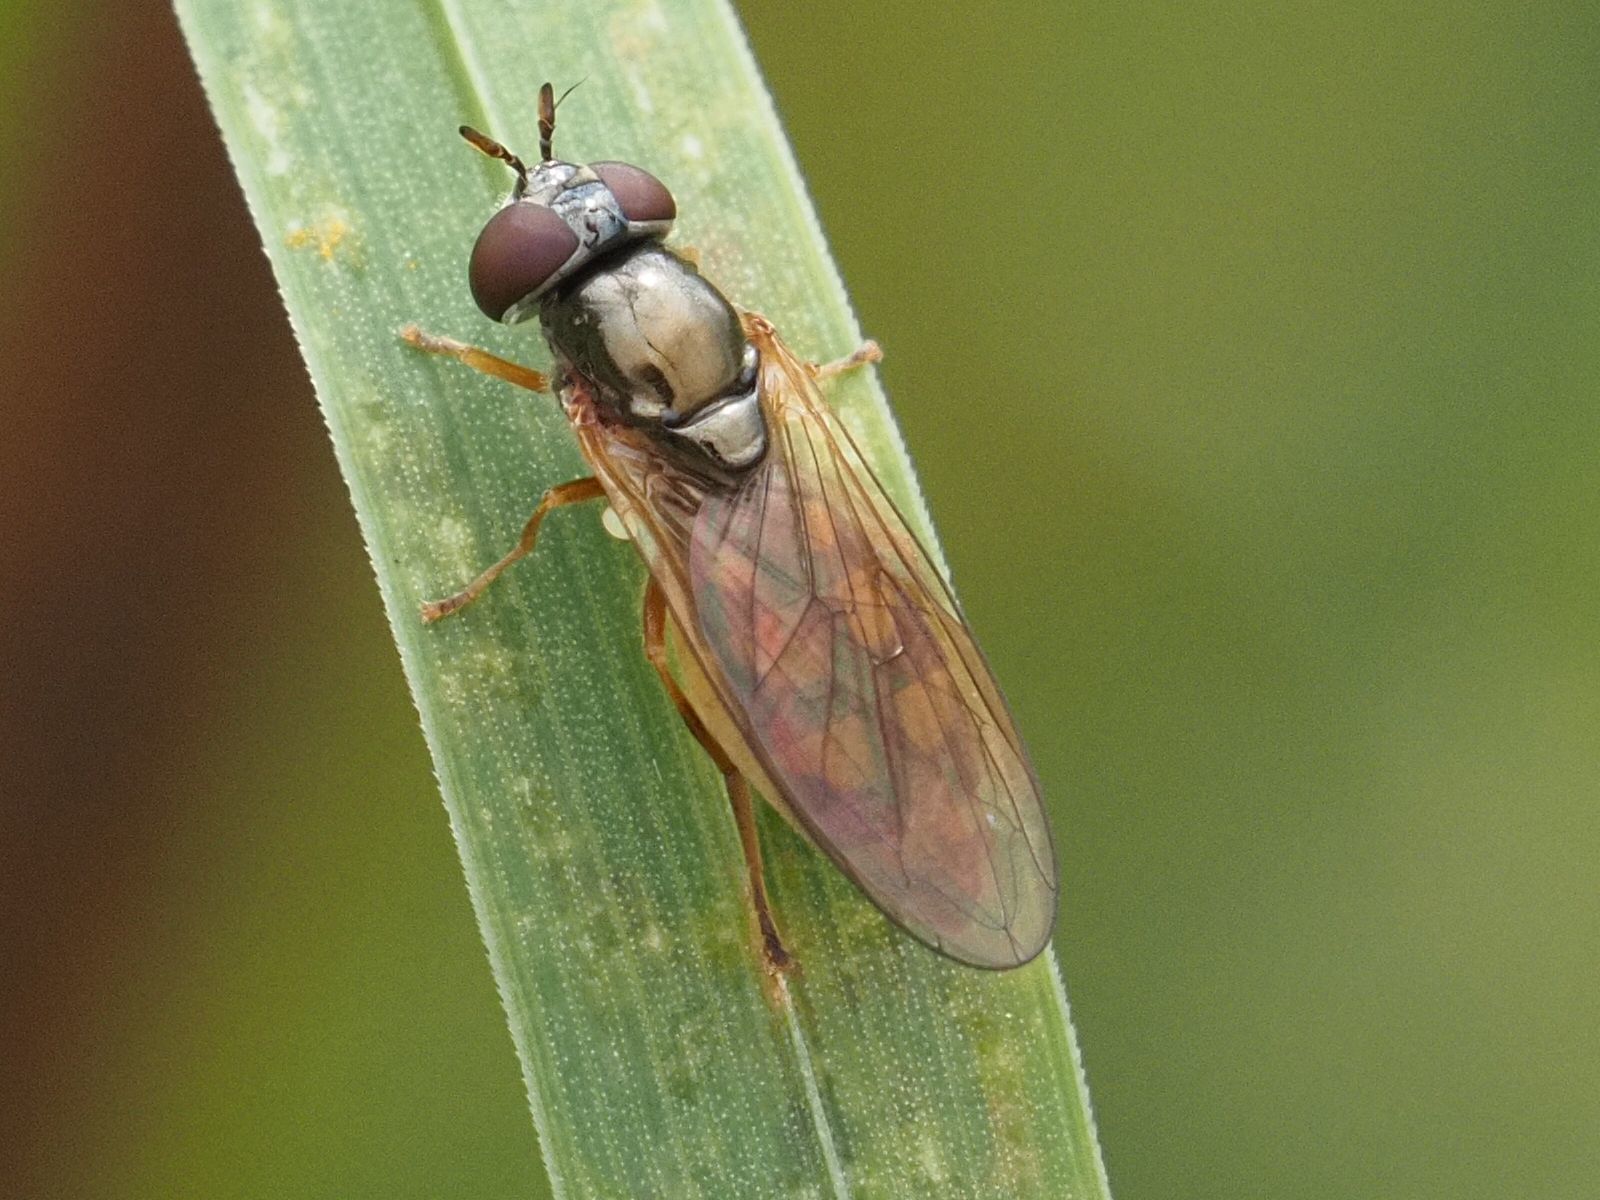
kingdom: Animalia
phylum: Arthropoda
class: Insecta
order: Diptera
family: Syrphidae
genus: Melanostoma
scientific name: Melanostoma scalare
